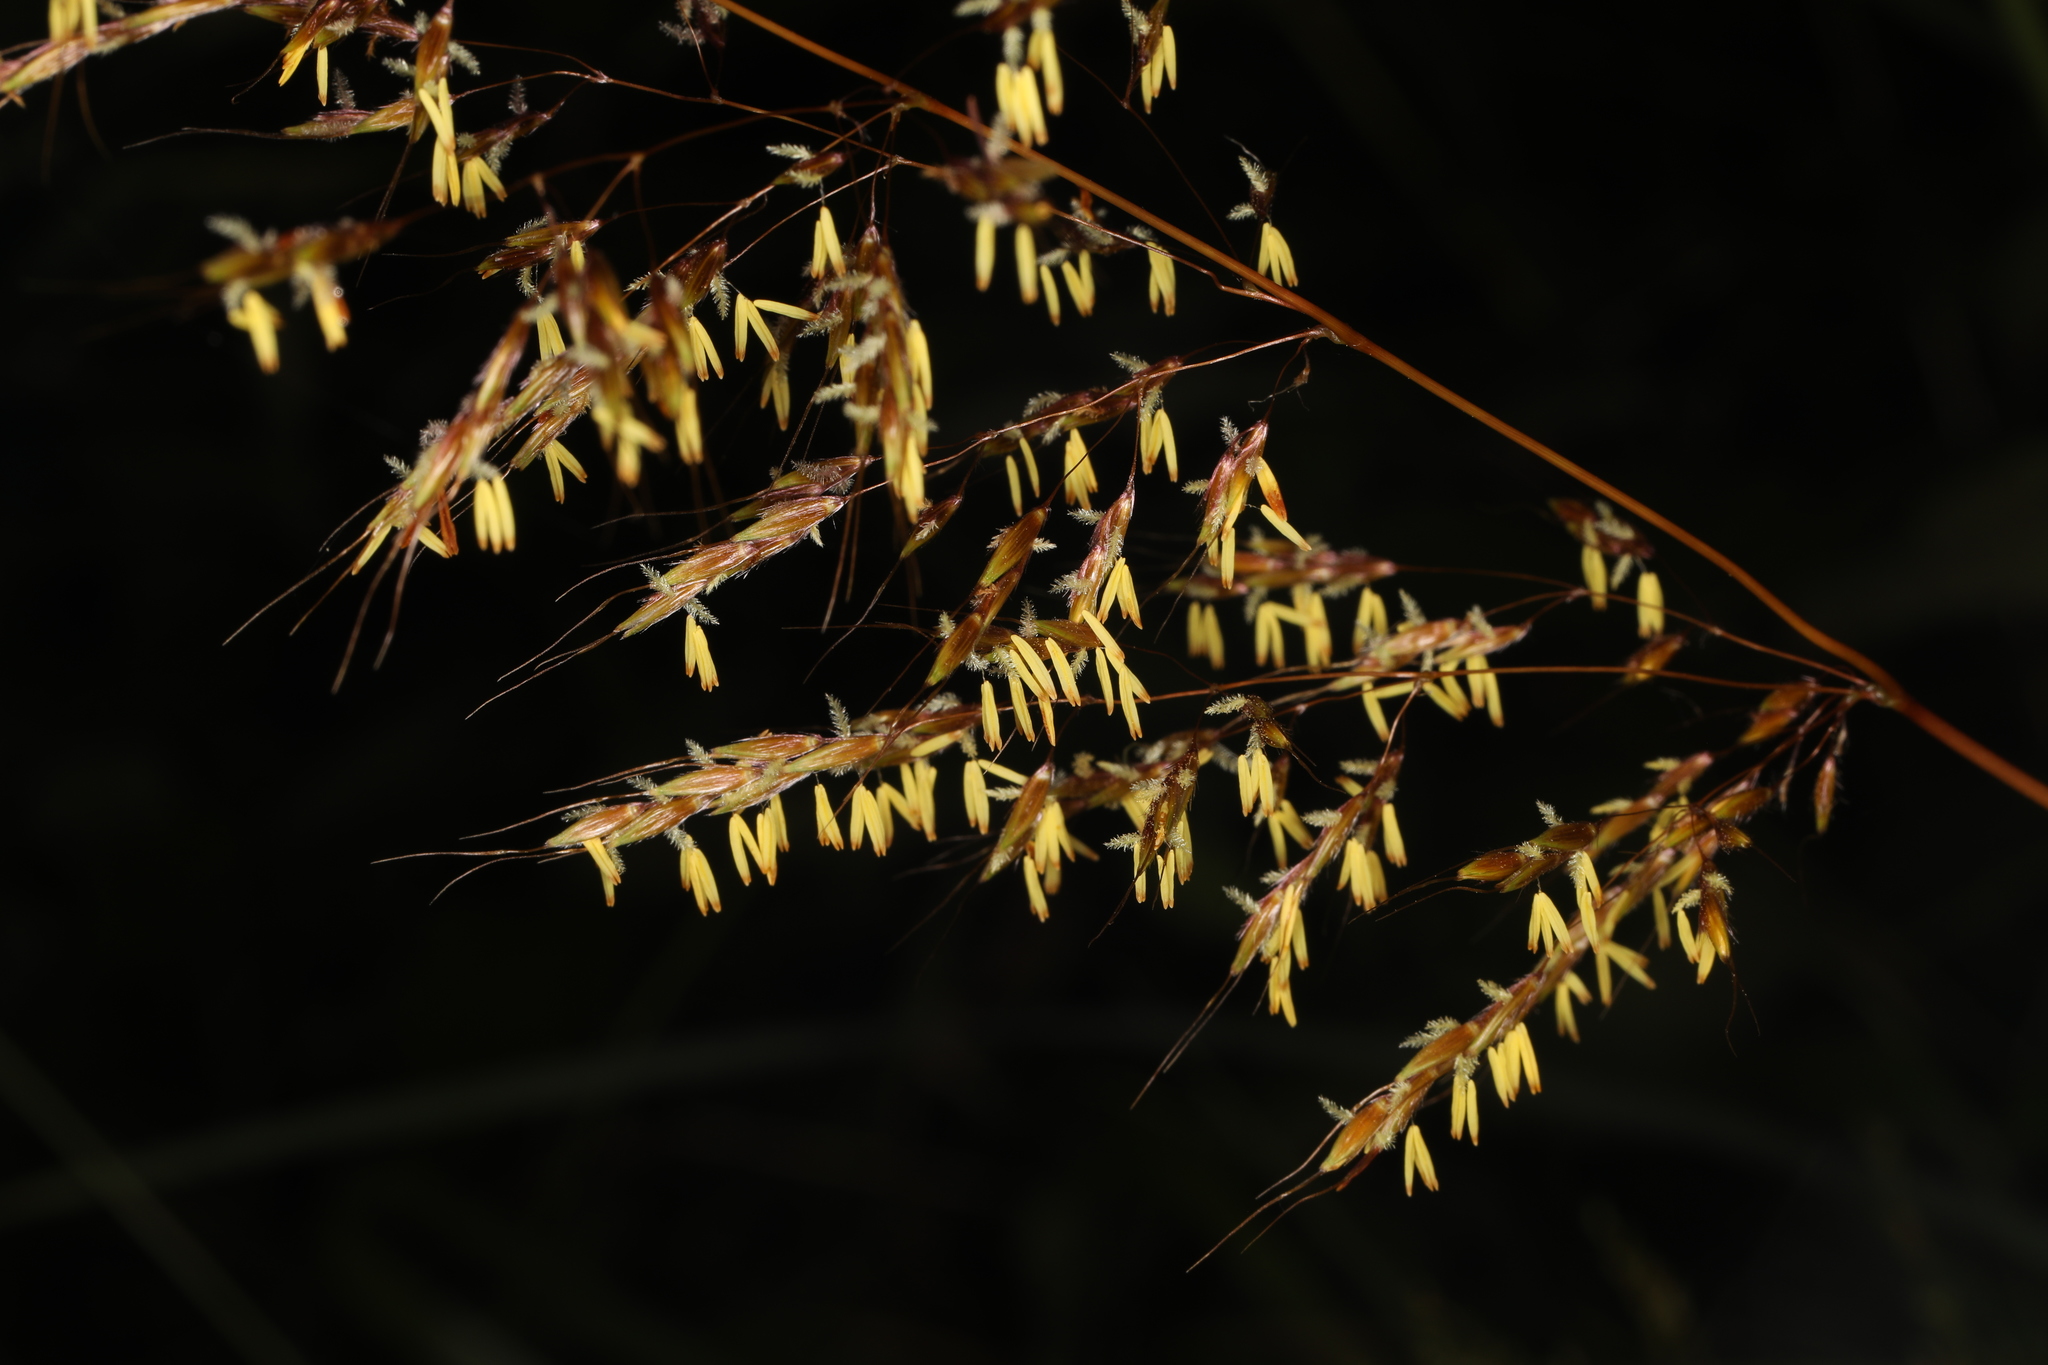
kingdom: Plantae
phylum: Tracheophyta
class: Liliopsida
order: Poales
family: Poaceae
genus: Sorghastrum
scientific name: Sorghastrum nutans
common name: Indian grass
